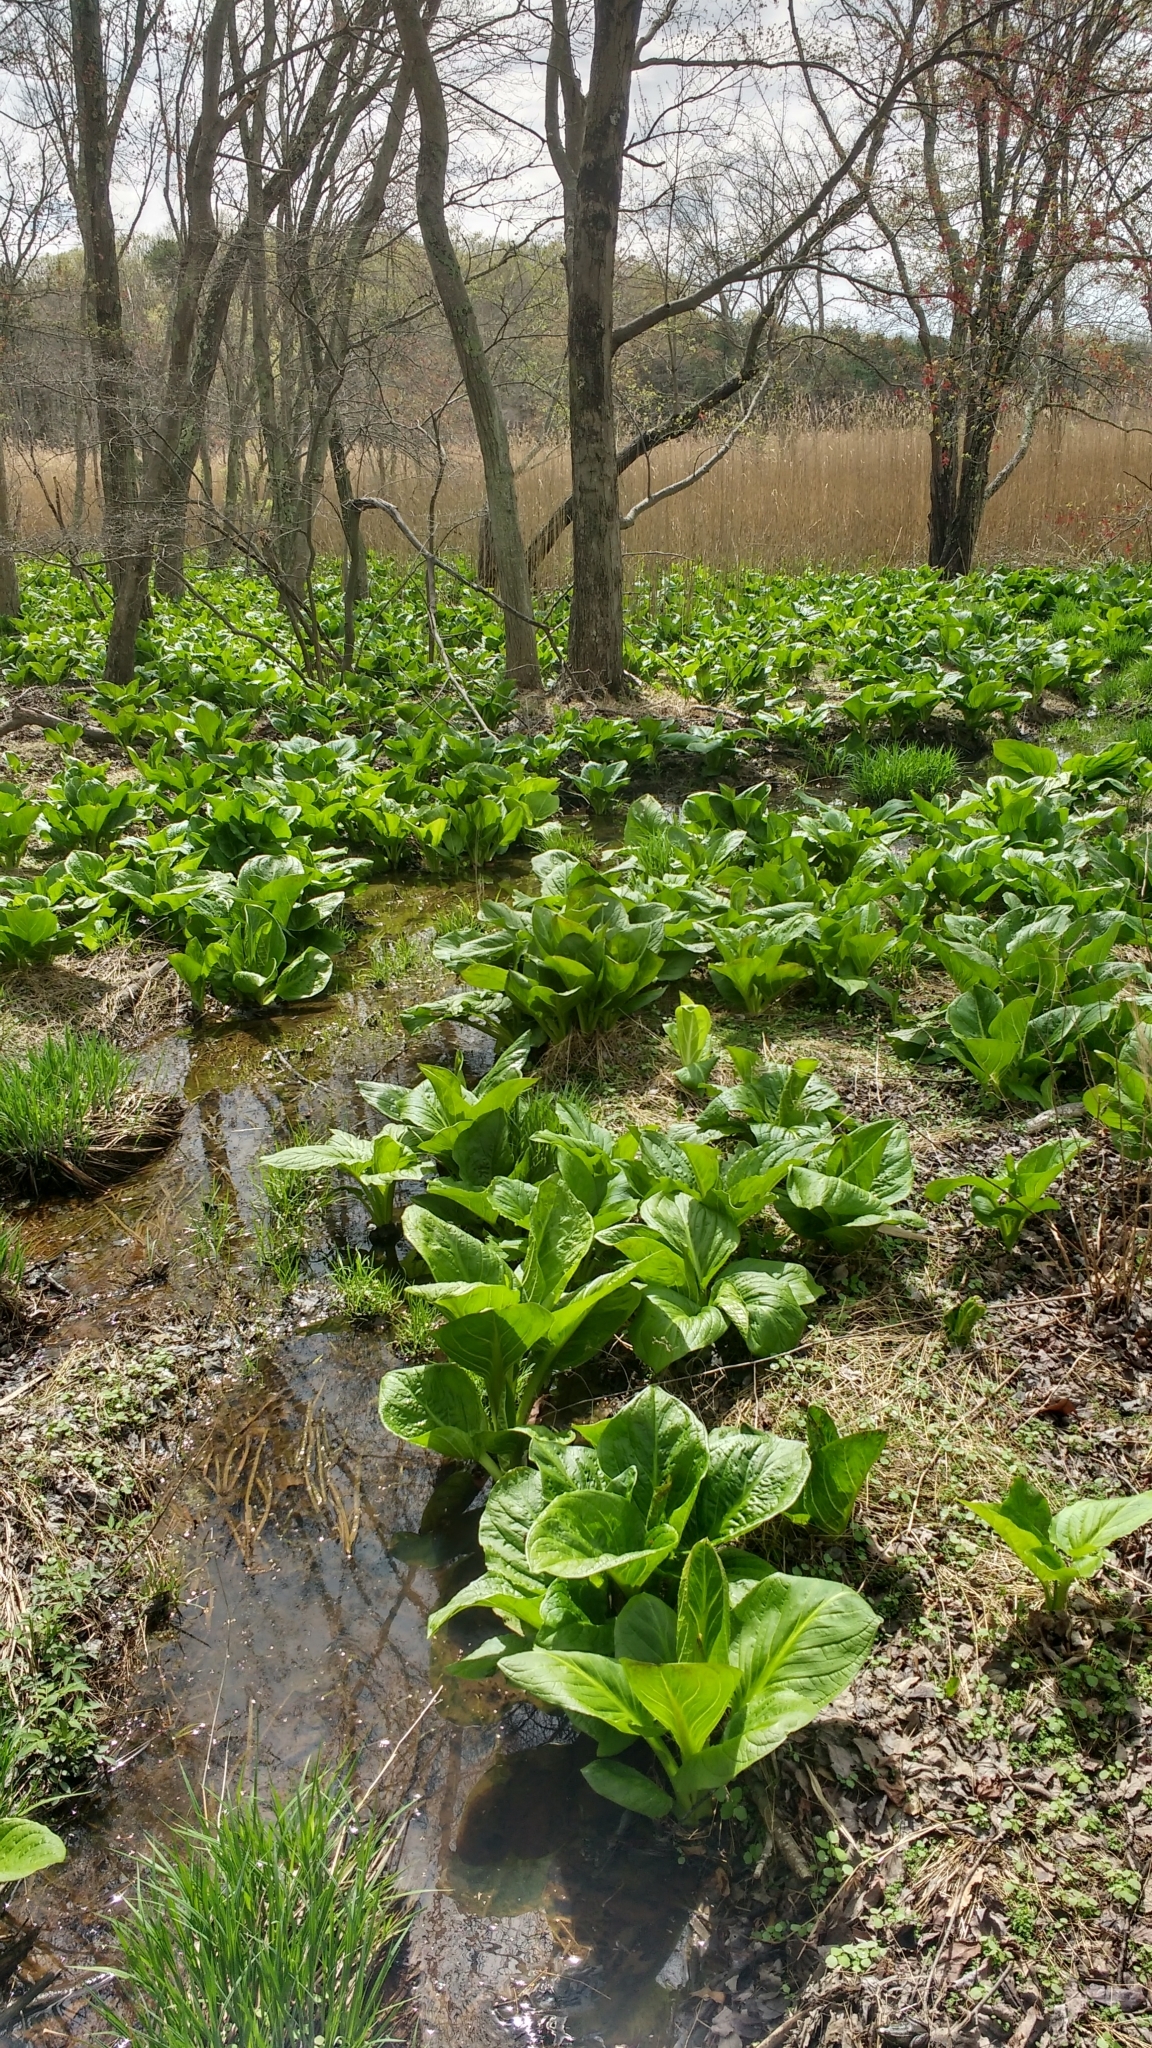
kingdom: Plantae
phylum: Tracheophyta
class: Liliopsida
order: Alismatales
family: Araceae
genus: Symplocarpus
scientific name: Symplocarpus foetidus
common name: Eastern skunk cabbage
